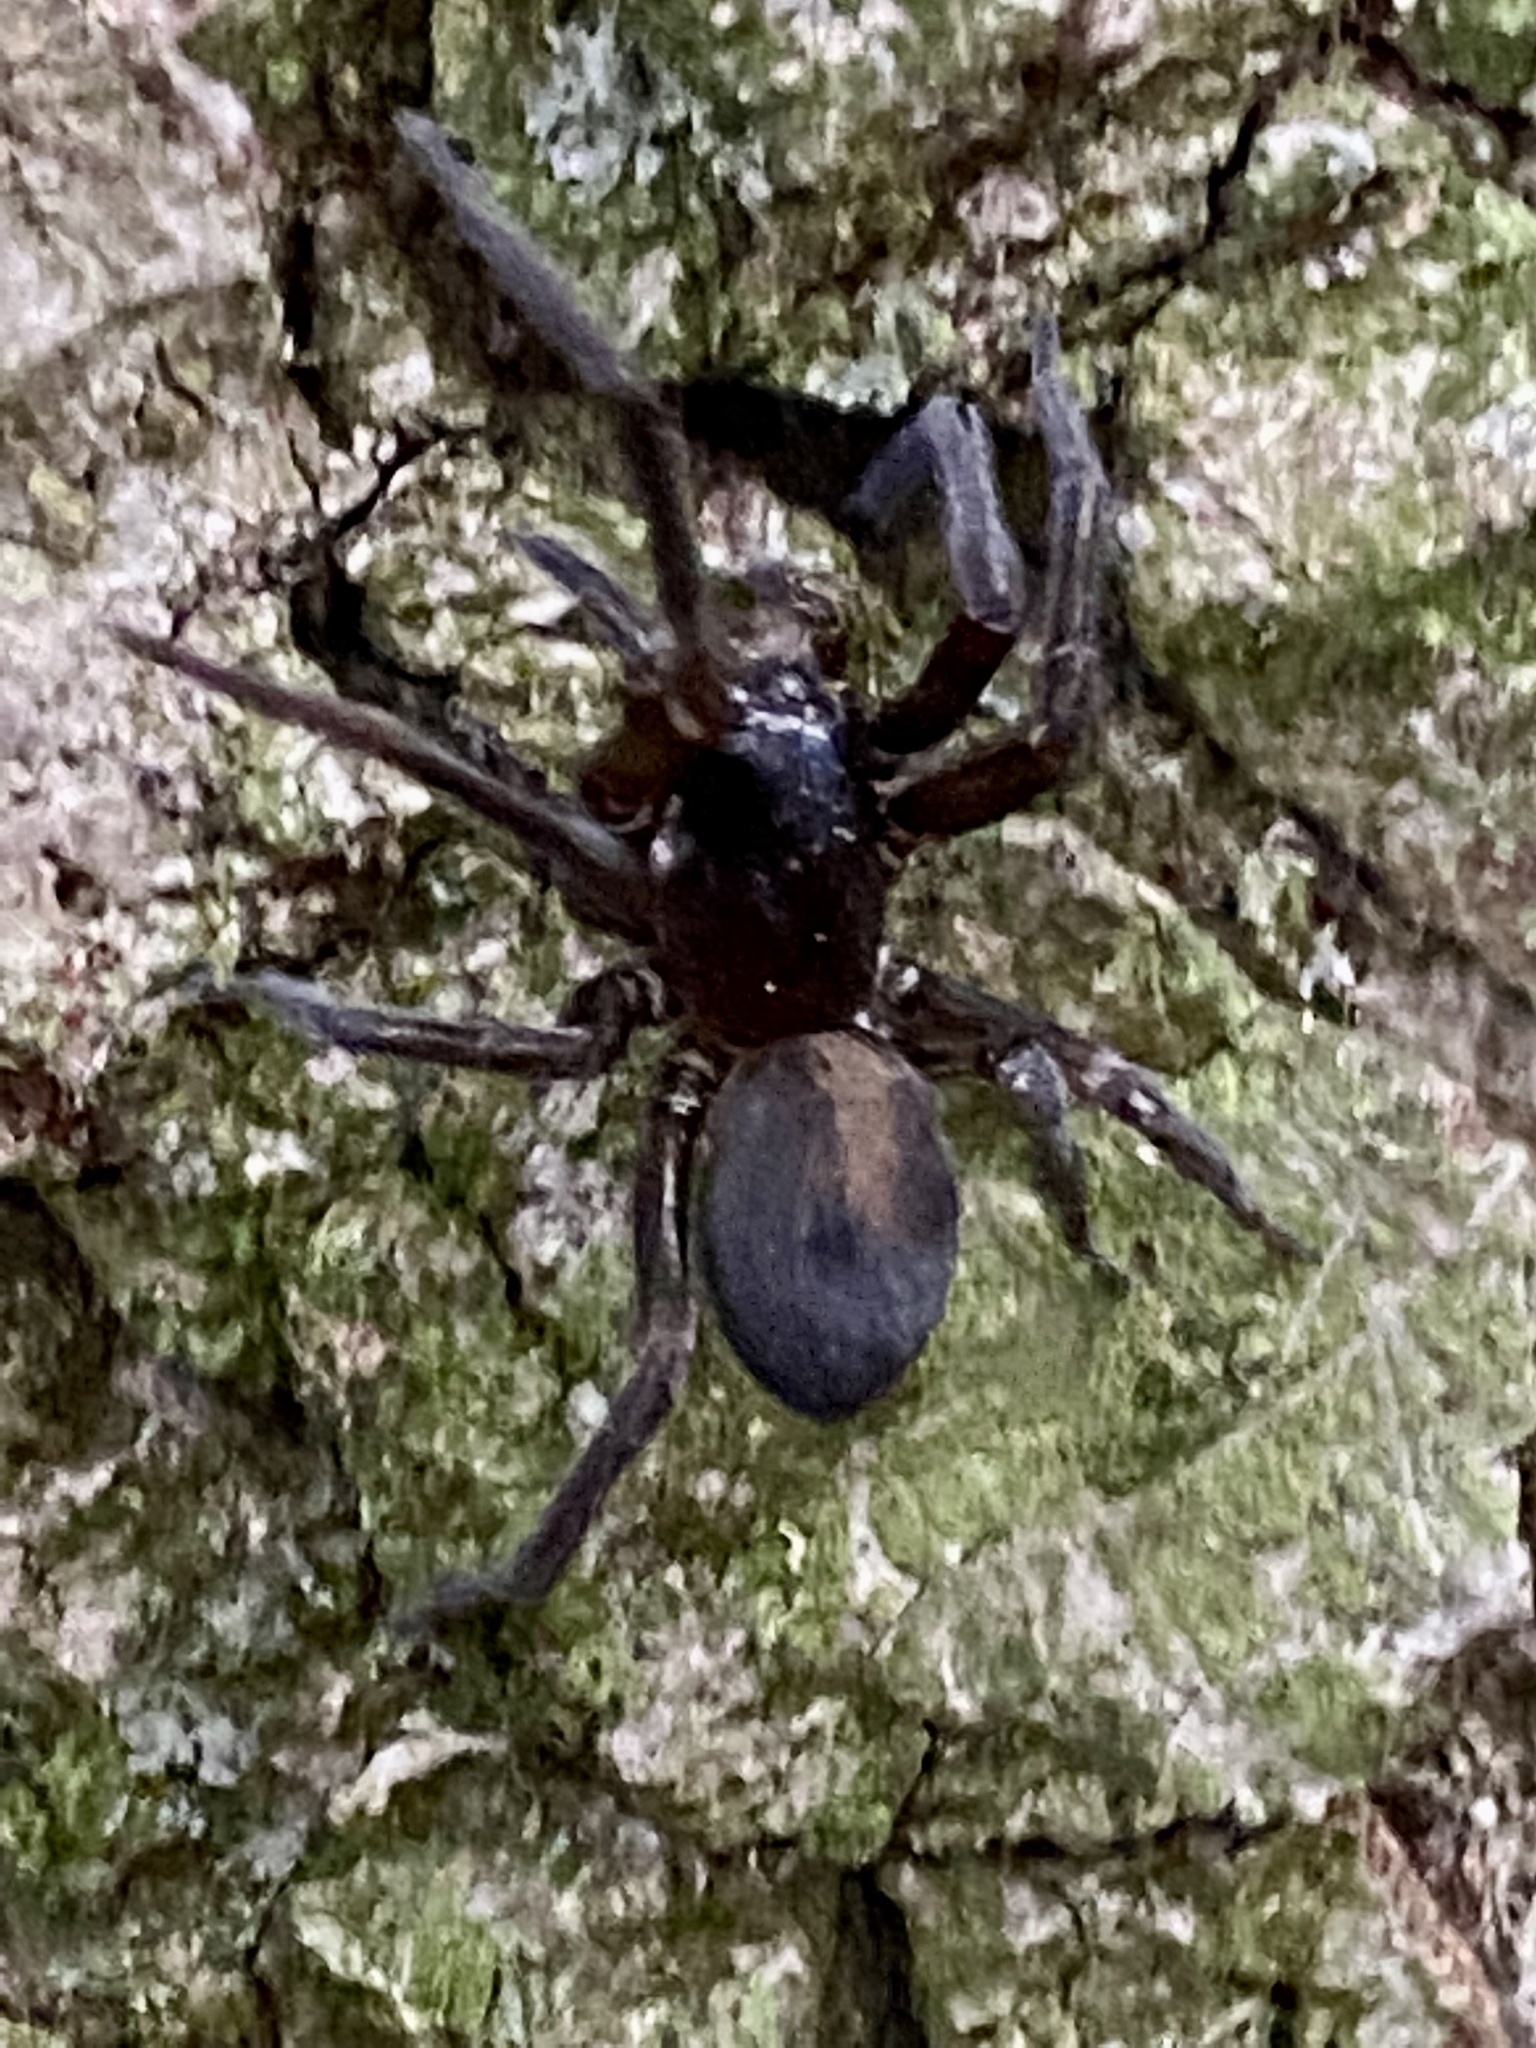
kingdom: Animalia
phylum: Arthropoda
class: Arachnida
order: Araneae
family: Amaurobiidae
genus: Amaurobius
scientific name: Amaurobius ferox
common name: Black laceweaver
